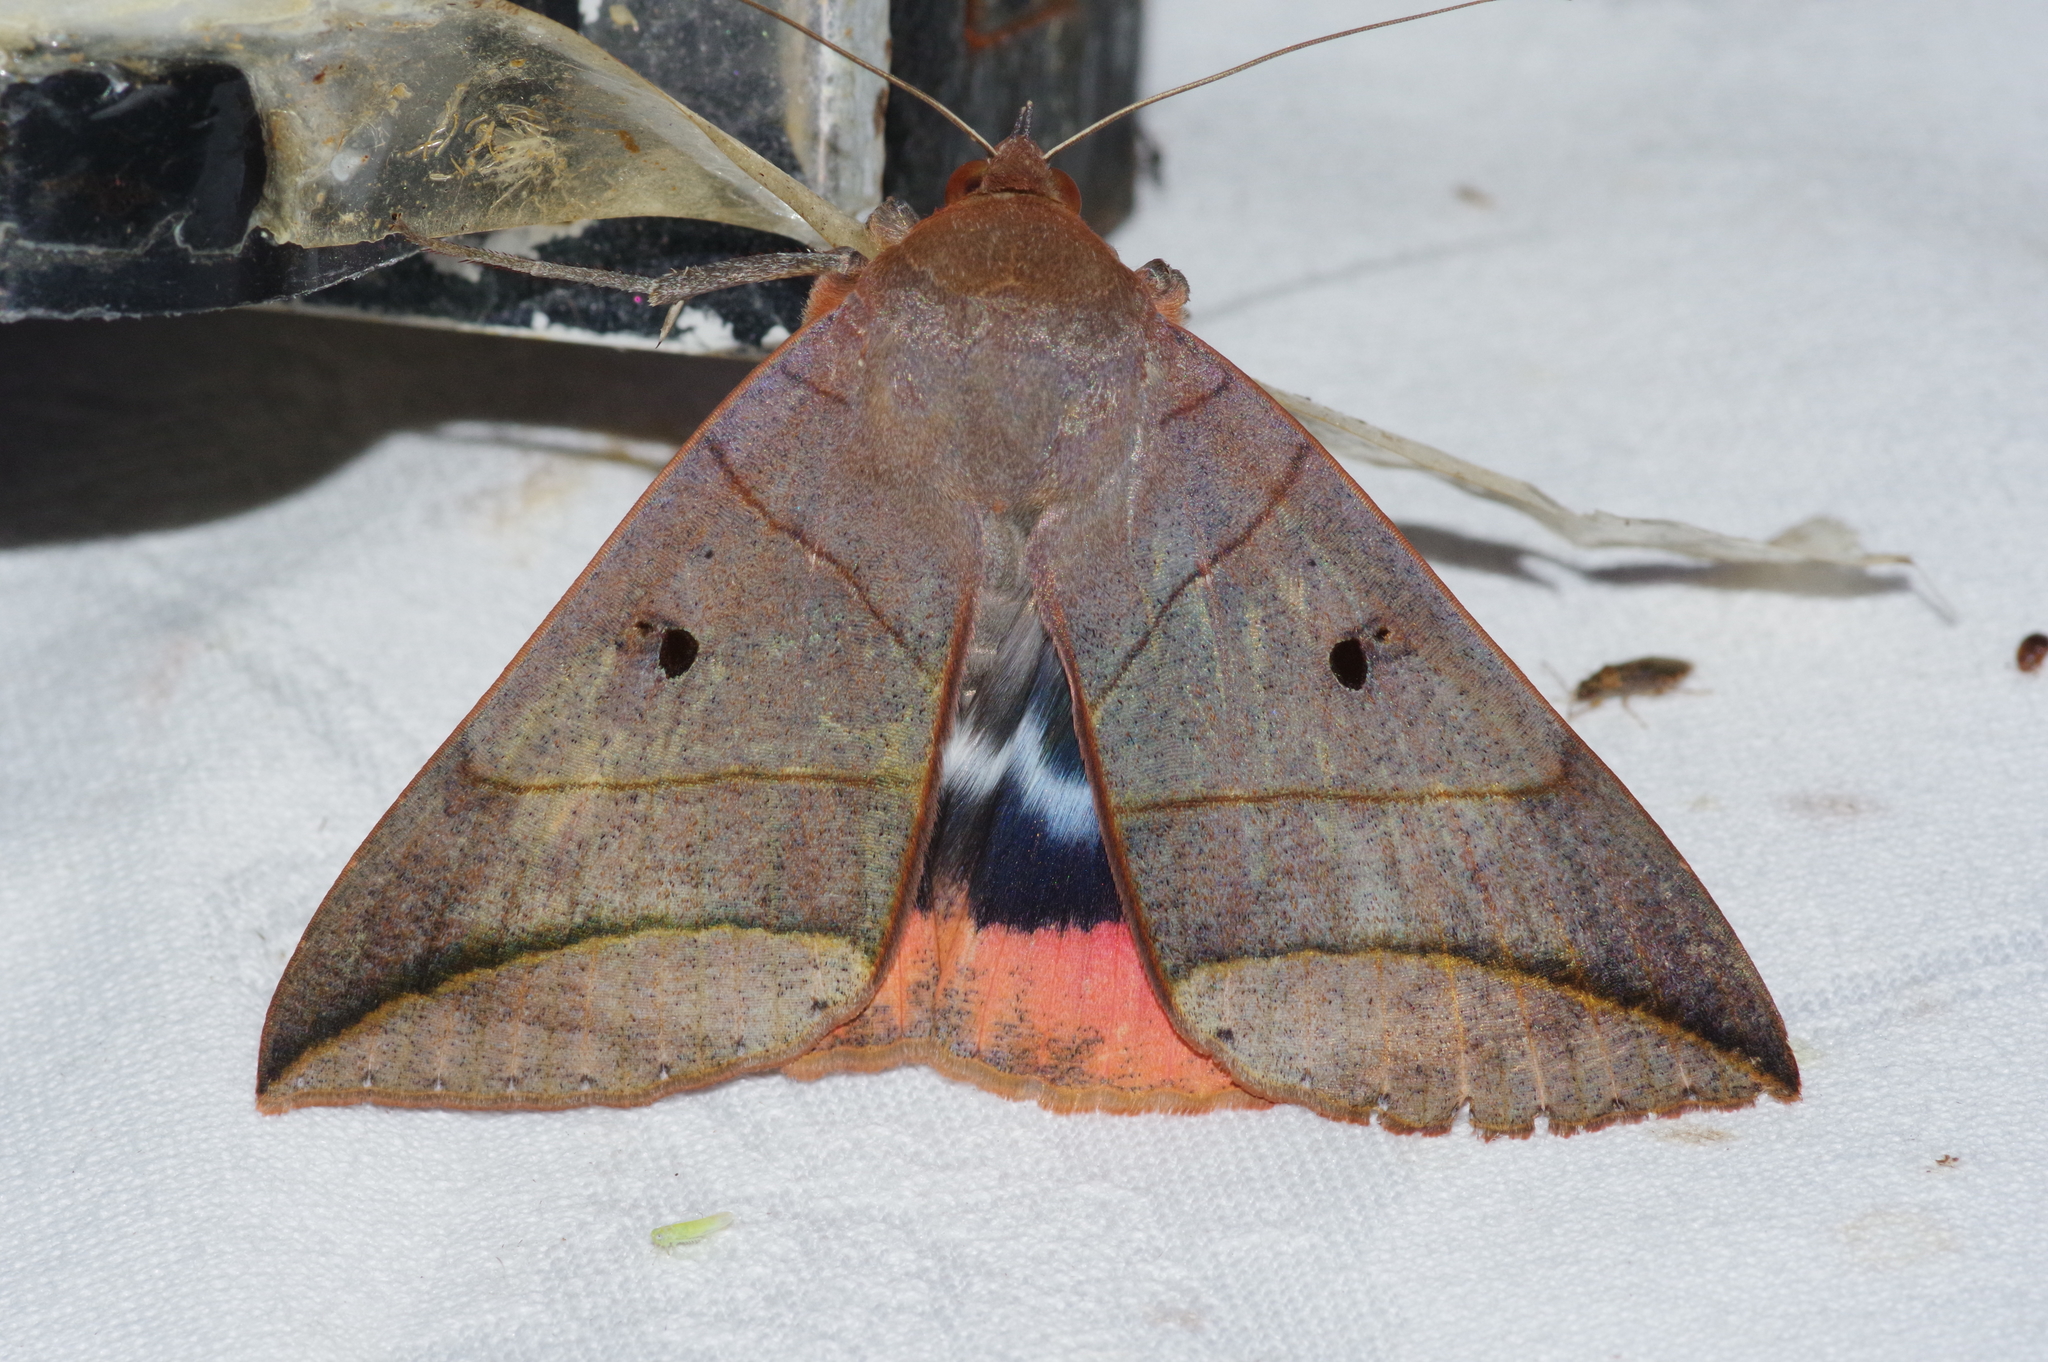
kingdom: Animalia
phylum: Arthropoda
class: Insecta
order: Lepidoptera
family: Erebidae
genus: Thyas
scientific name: Thyas juno
